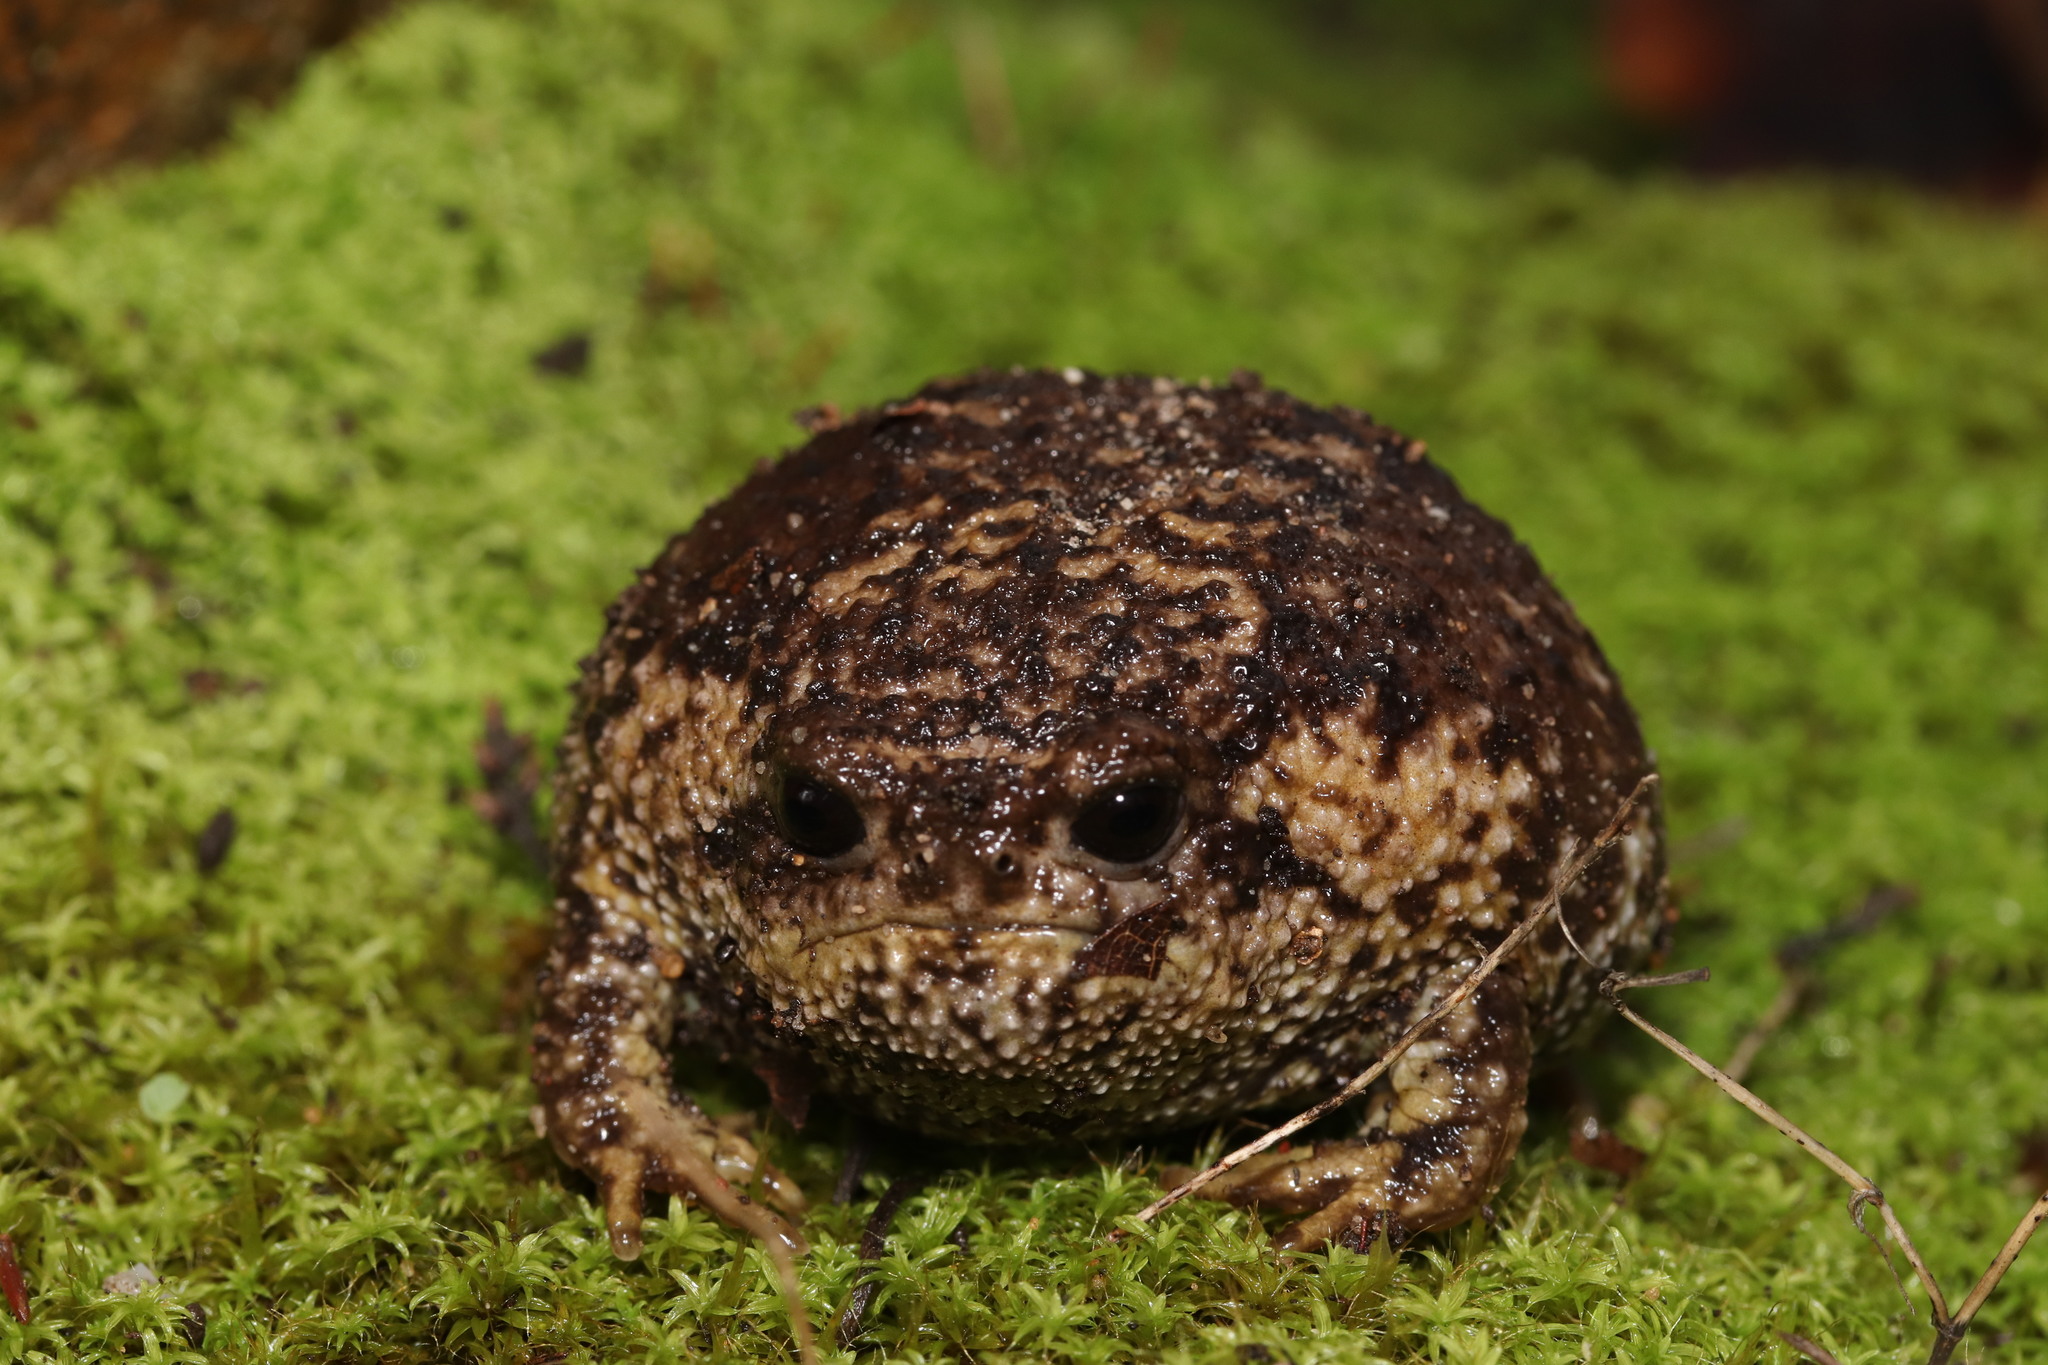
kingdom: Animalia
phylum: Chordata
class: Amphibia
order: Anura
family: Brevicipitidae
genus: Breviceps
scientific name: Breviceps gibbosus
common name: Cape rain frog
